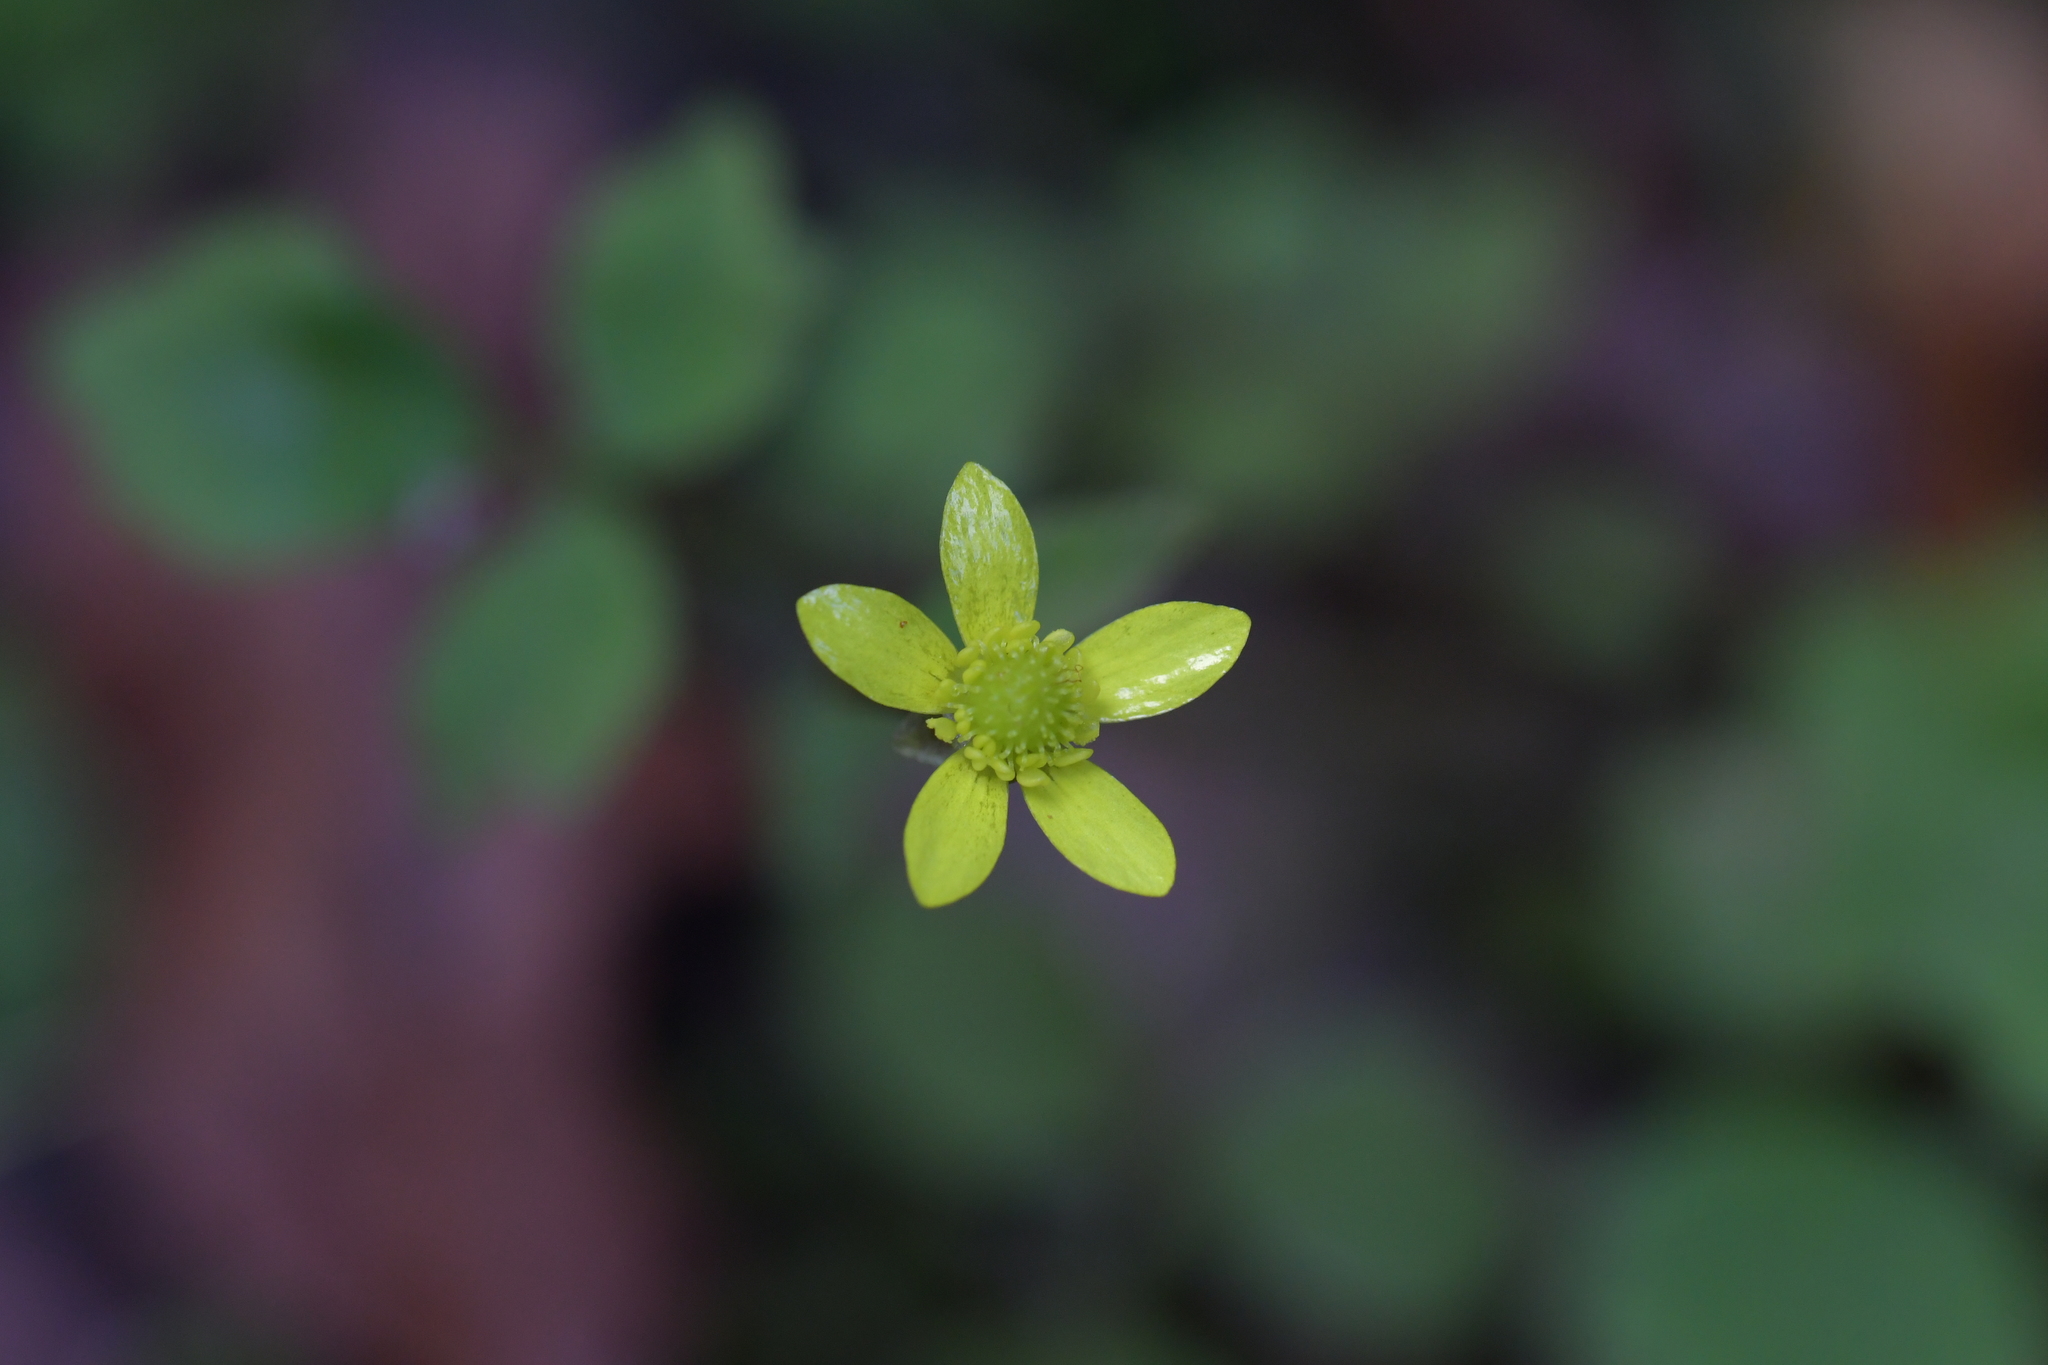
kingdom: Plantae
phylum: Tracheophyta
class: Magnoliopsida
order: Ranunculales
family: Ranunculaceae
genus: Ranunculus
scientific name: Ranunculus reflexus
